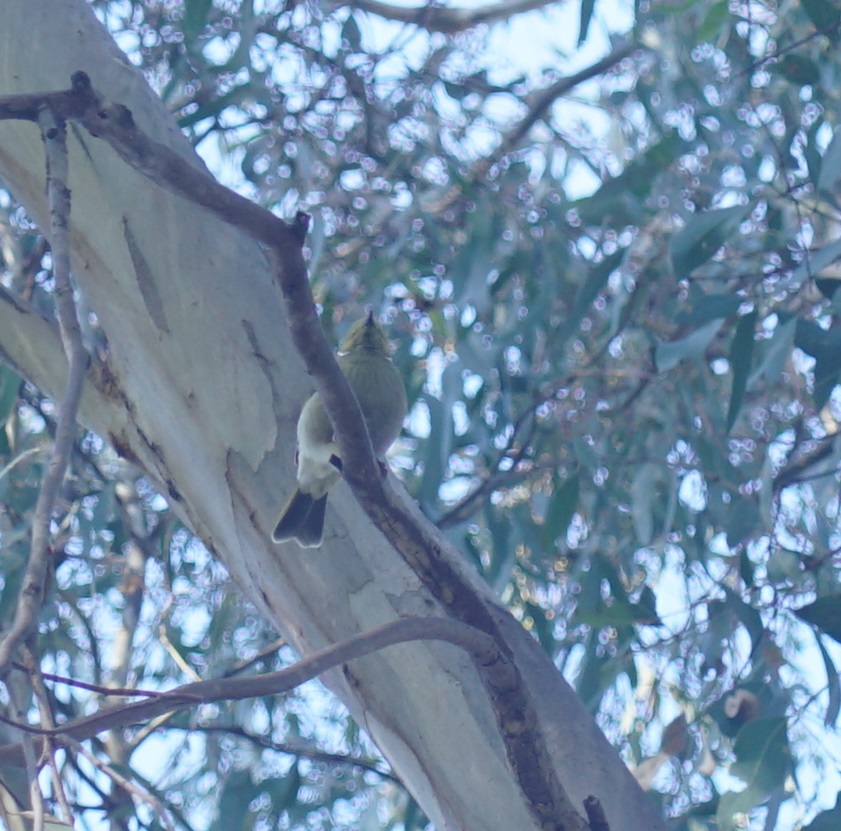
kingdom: Animalia
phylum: Chordata
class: Aves
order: Passeriformes
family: Meliphagidae
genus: Ptilotula
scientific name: Ptilotula penicillata
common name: White-plumed honeyeater
